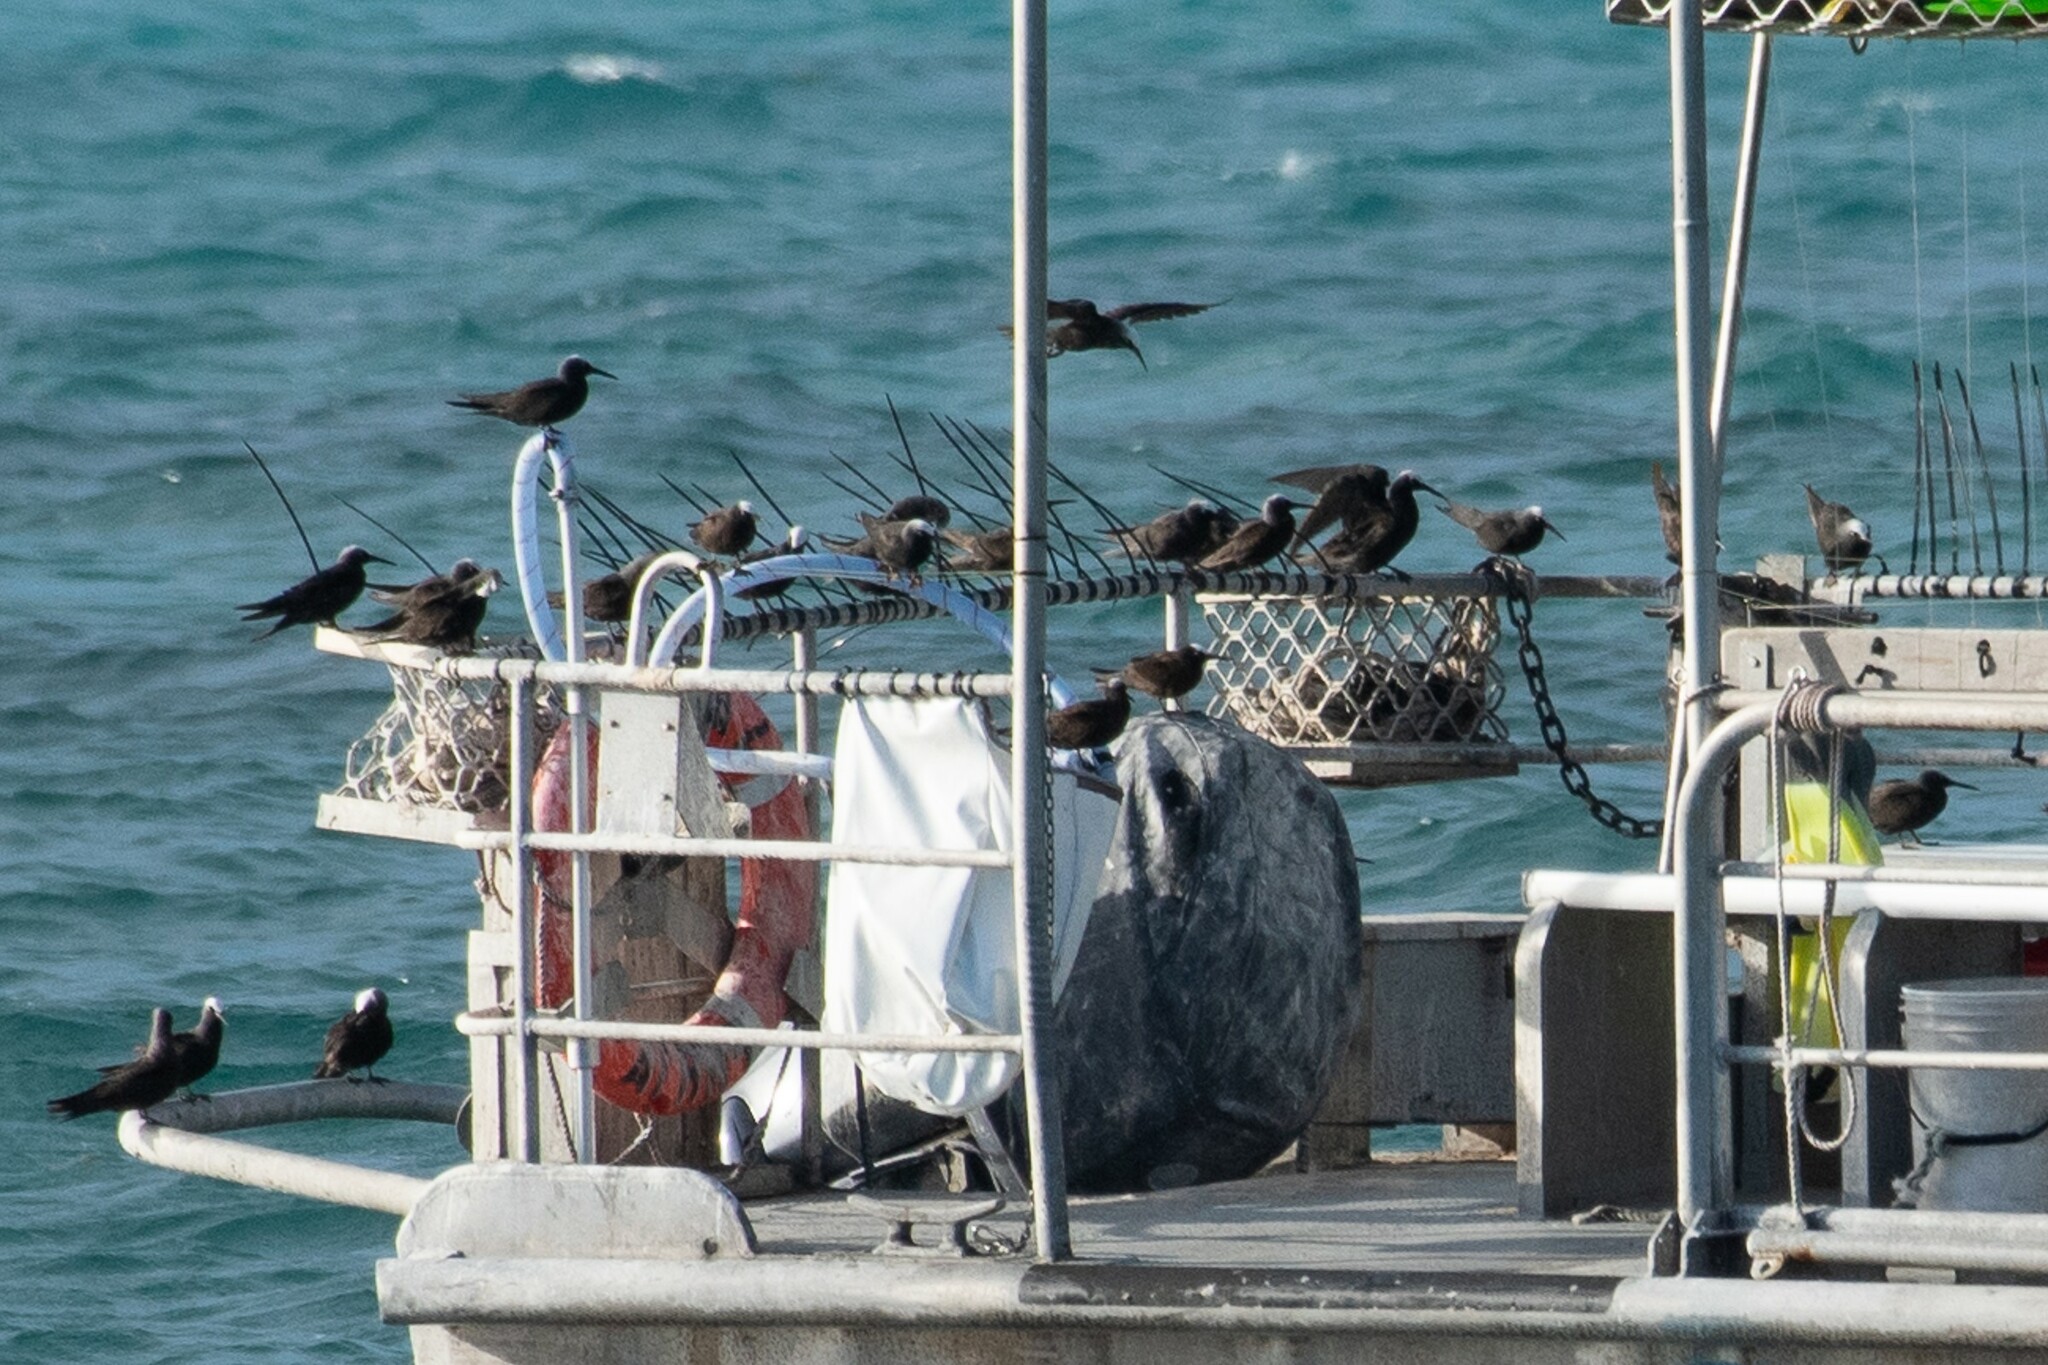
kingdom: Animalia
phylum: Chordata
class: Aves
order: Charadriiformes
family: Laridae
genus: Anous
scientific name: Anous minutus
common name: Black noddy
